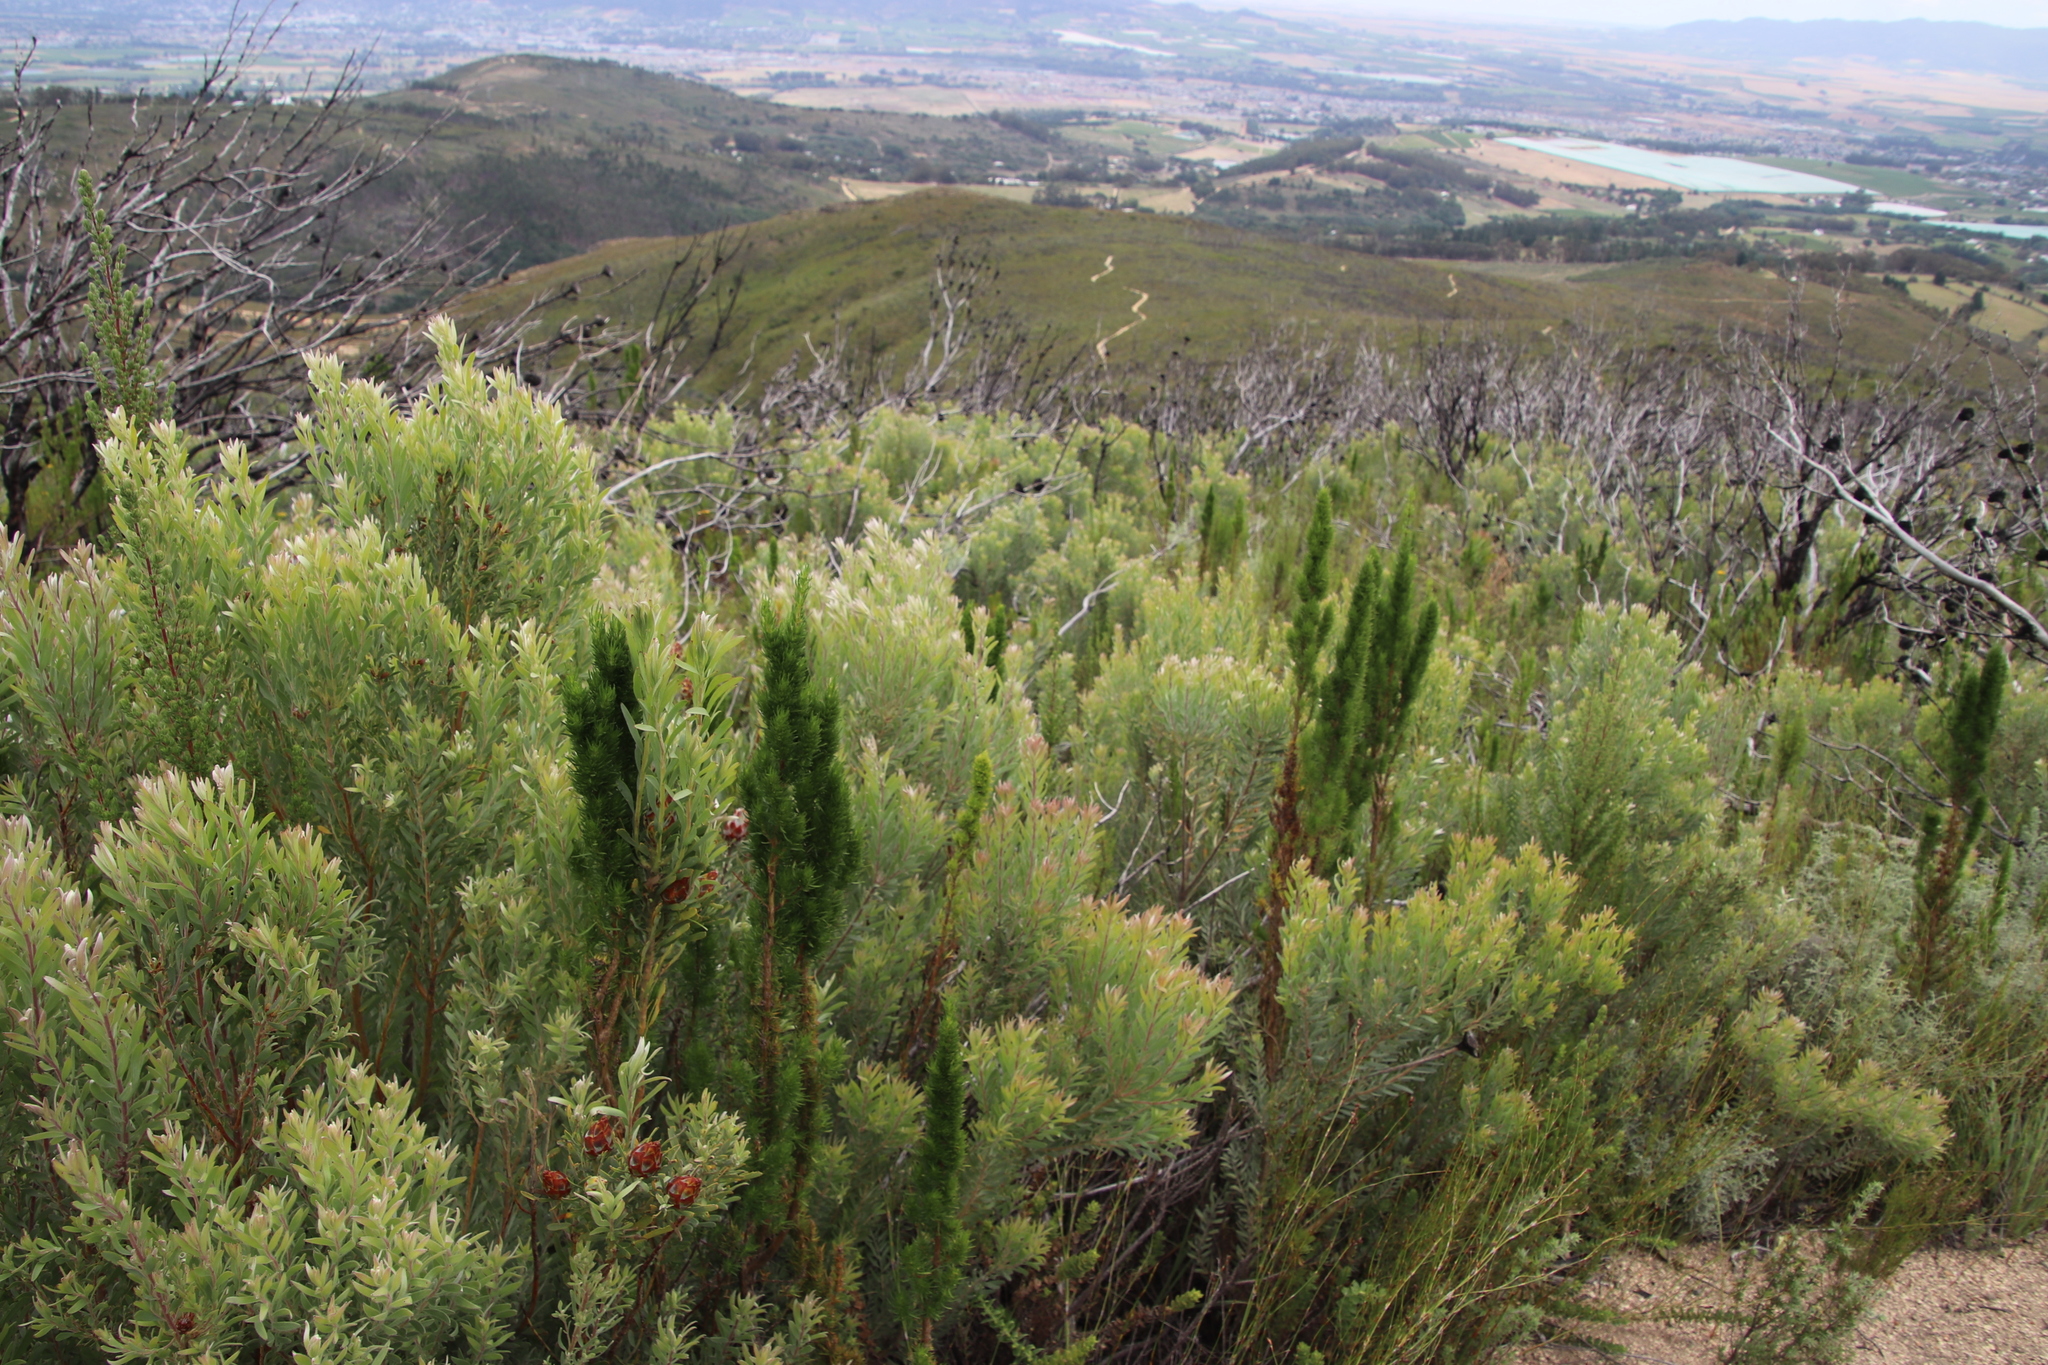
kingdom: Plantae
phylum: Tracheophyta
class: Magnoliopsida
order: Proteales
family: Proteaceae
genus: Leucadendron
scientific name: Leucadendron rubrum
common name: Spinning top
